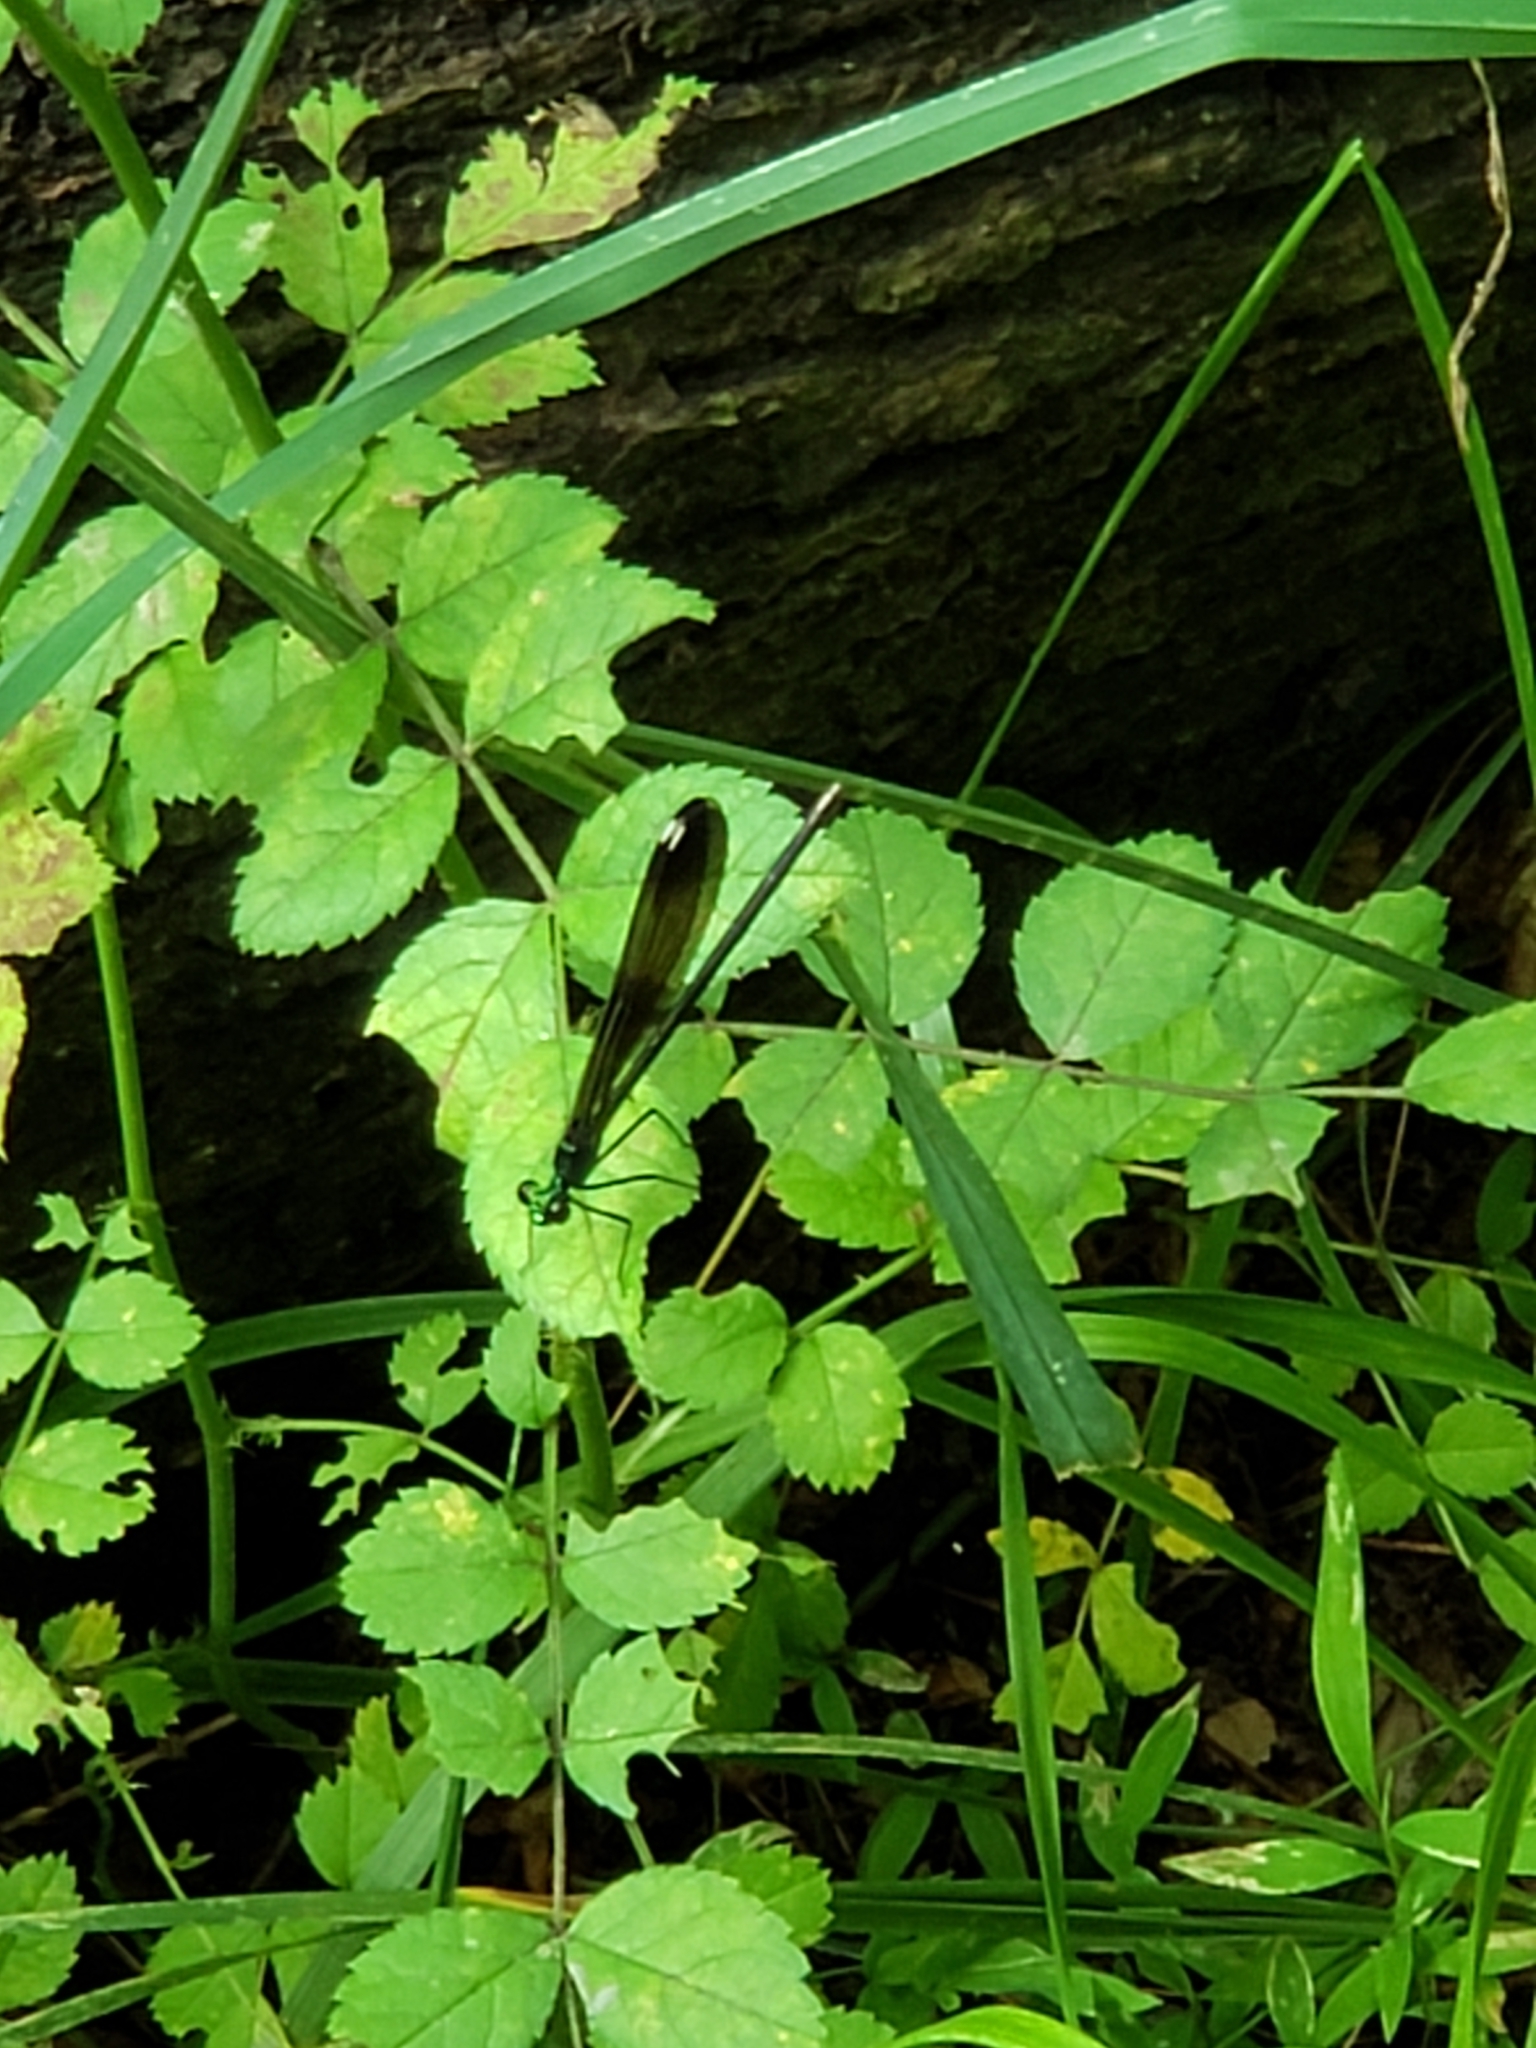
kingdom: Animalia
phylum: Arthropoda
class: Insecta
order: Odonata
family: Calopterygidae
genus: Calopteryx
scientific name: Calopteryx maculata
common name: Ebony jewelwing
